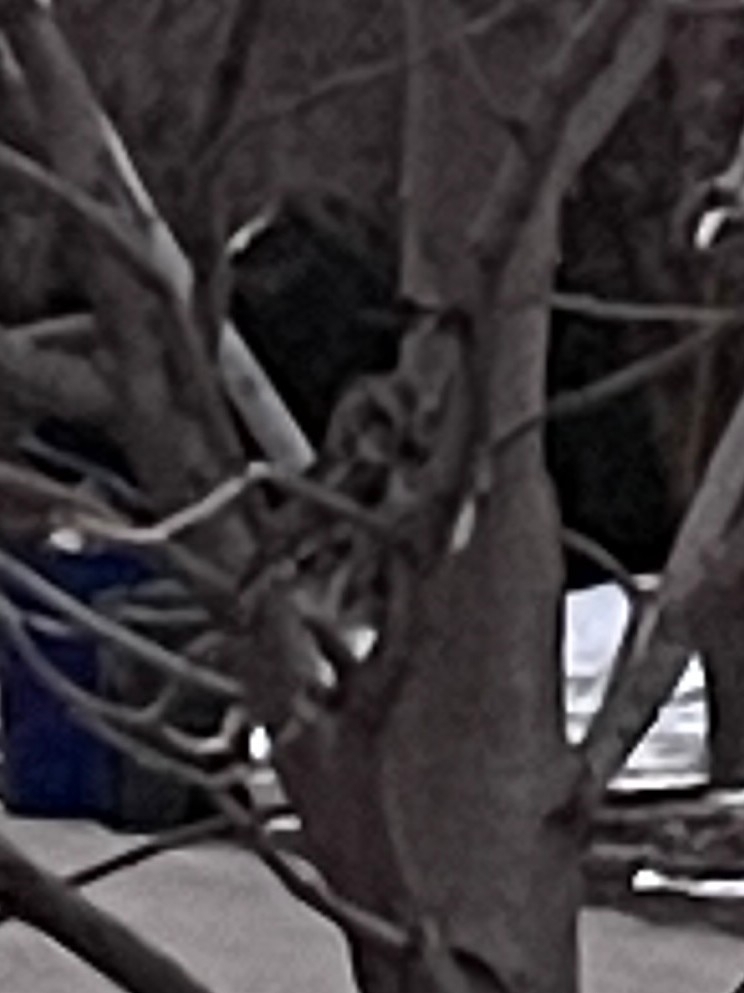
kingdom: Animalia
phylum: Chordata
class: Aves
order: Strigiformes
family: Strigidae
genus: Megascops
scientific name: Megascops kennicottii
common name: Western screech-owl
